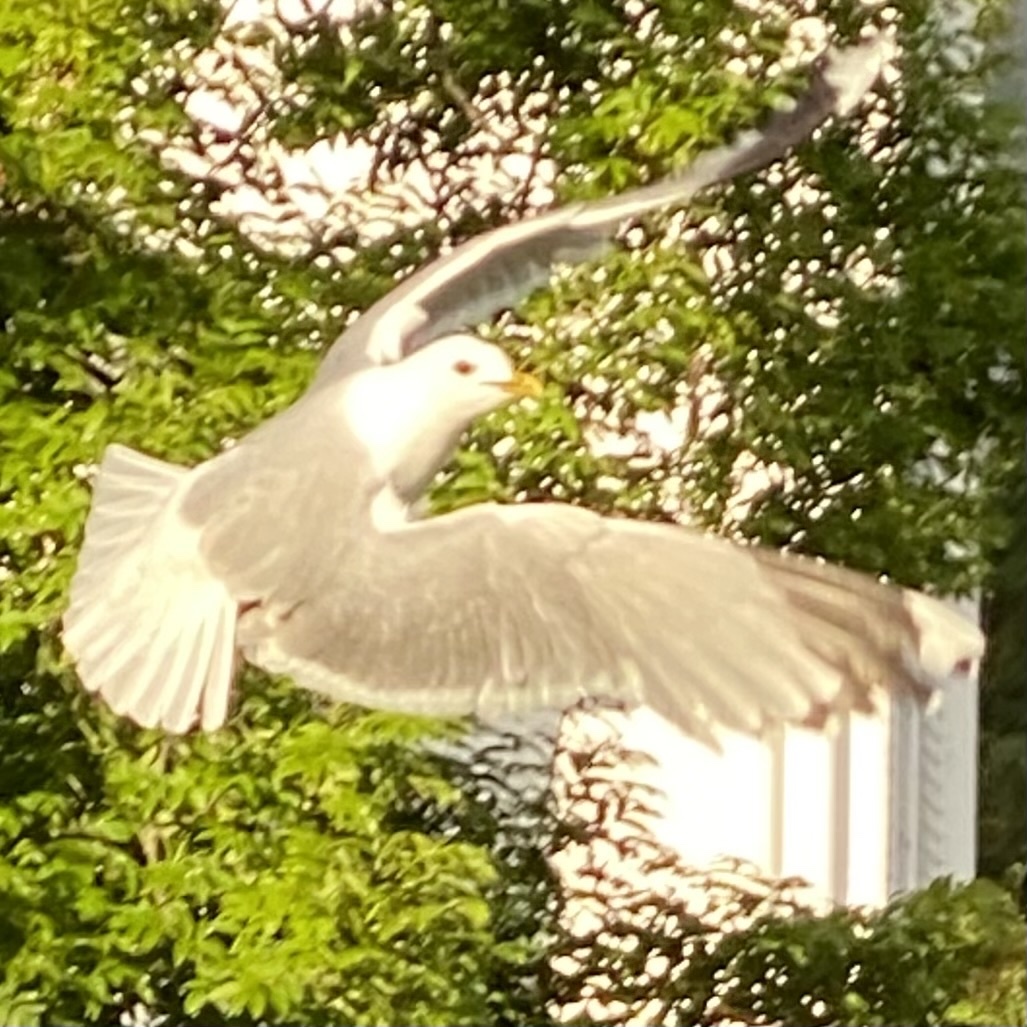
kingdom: Animalia
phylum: Chordata
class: Aves
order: Charadriiformes
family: Laridae
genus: Larus
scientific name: Larus canus
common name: Mew gull
